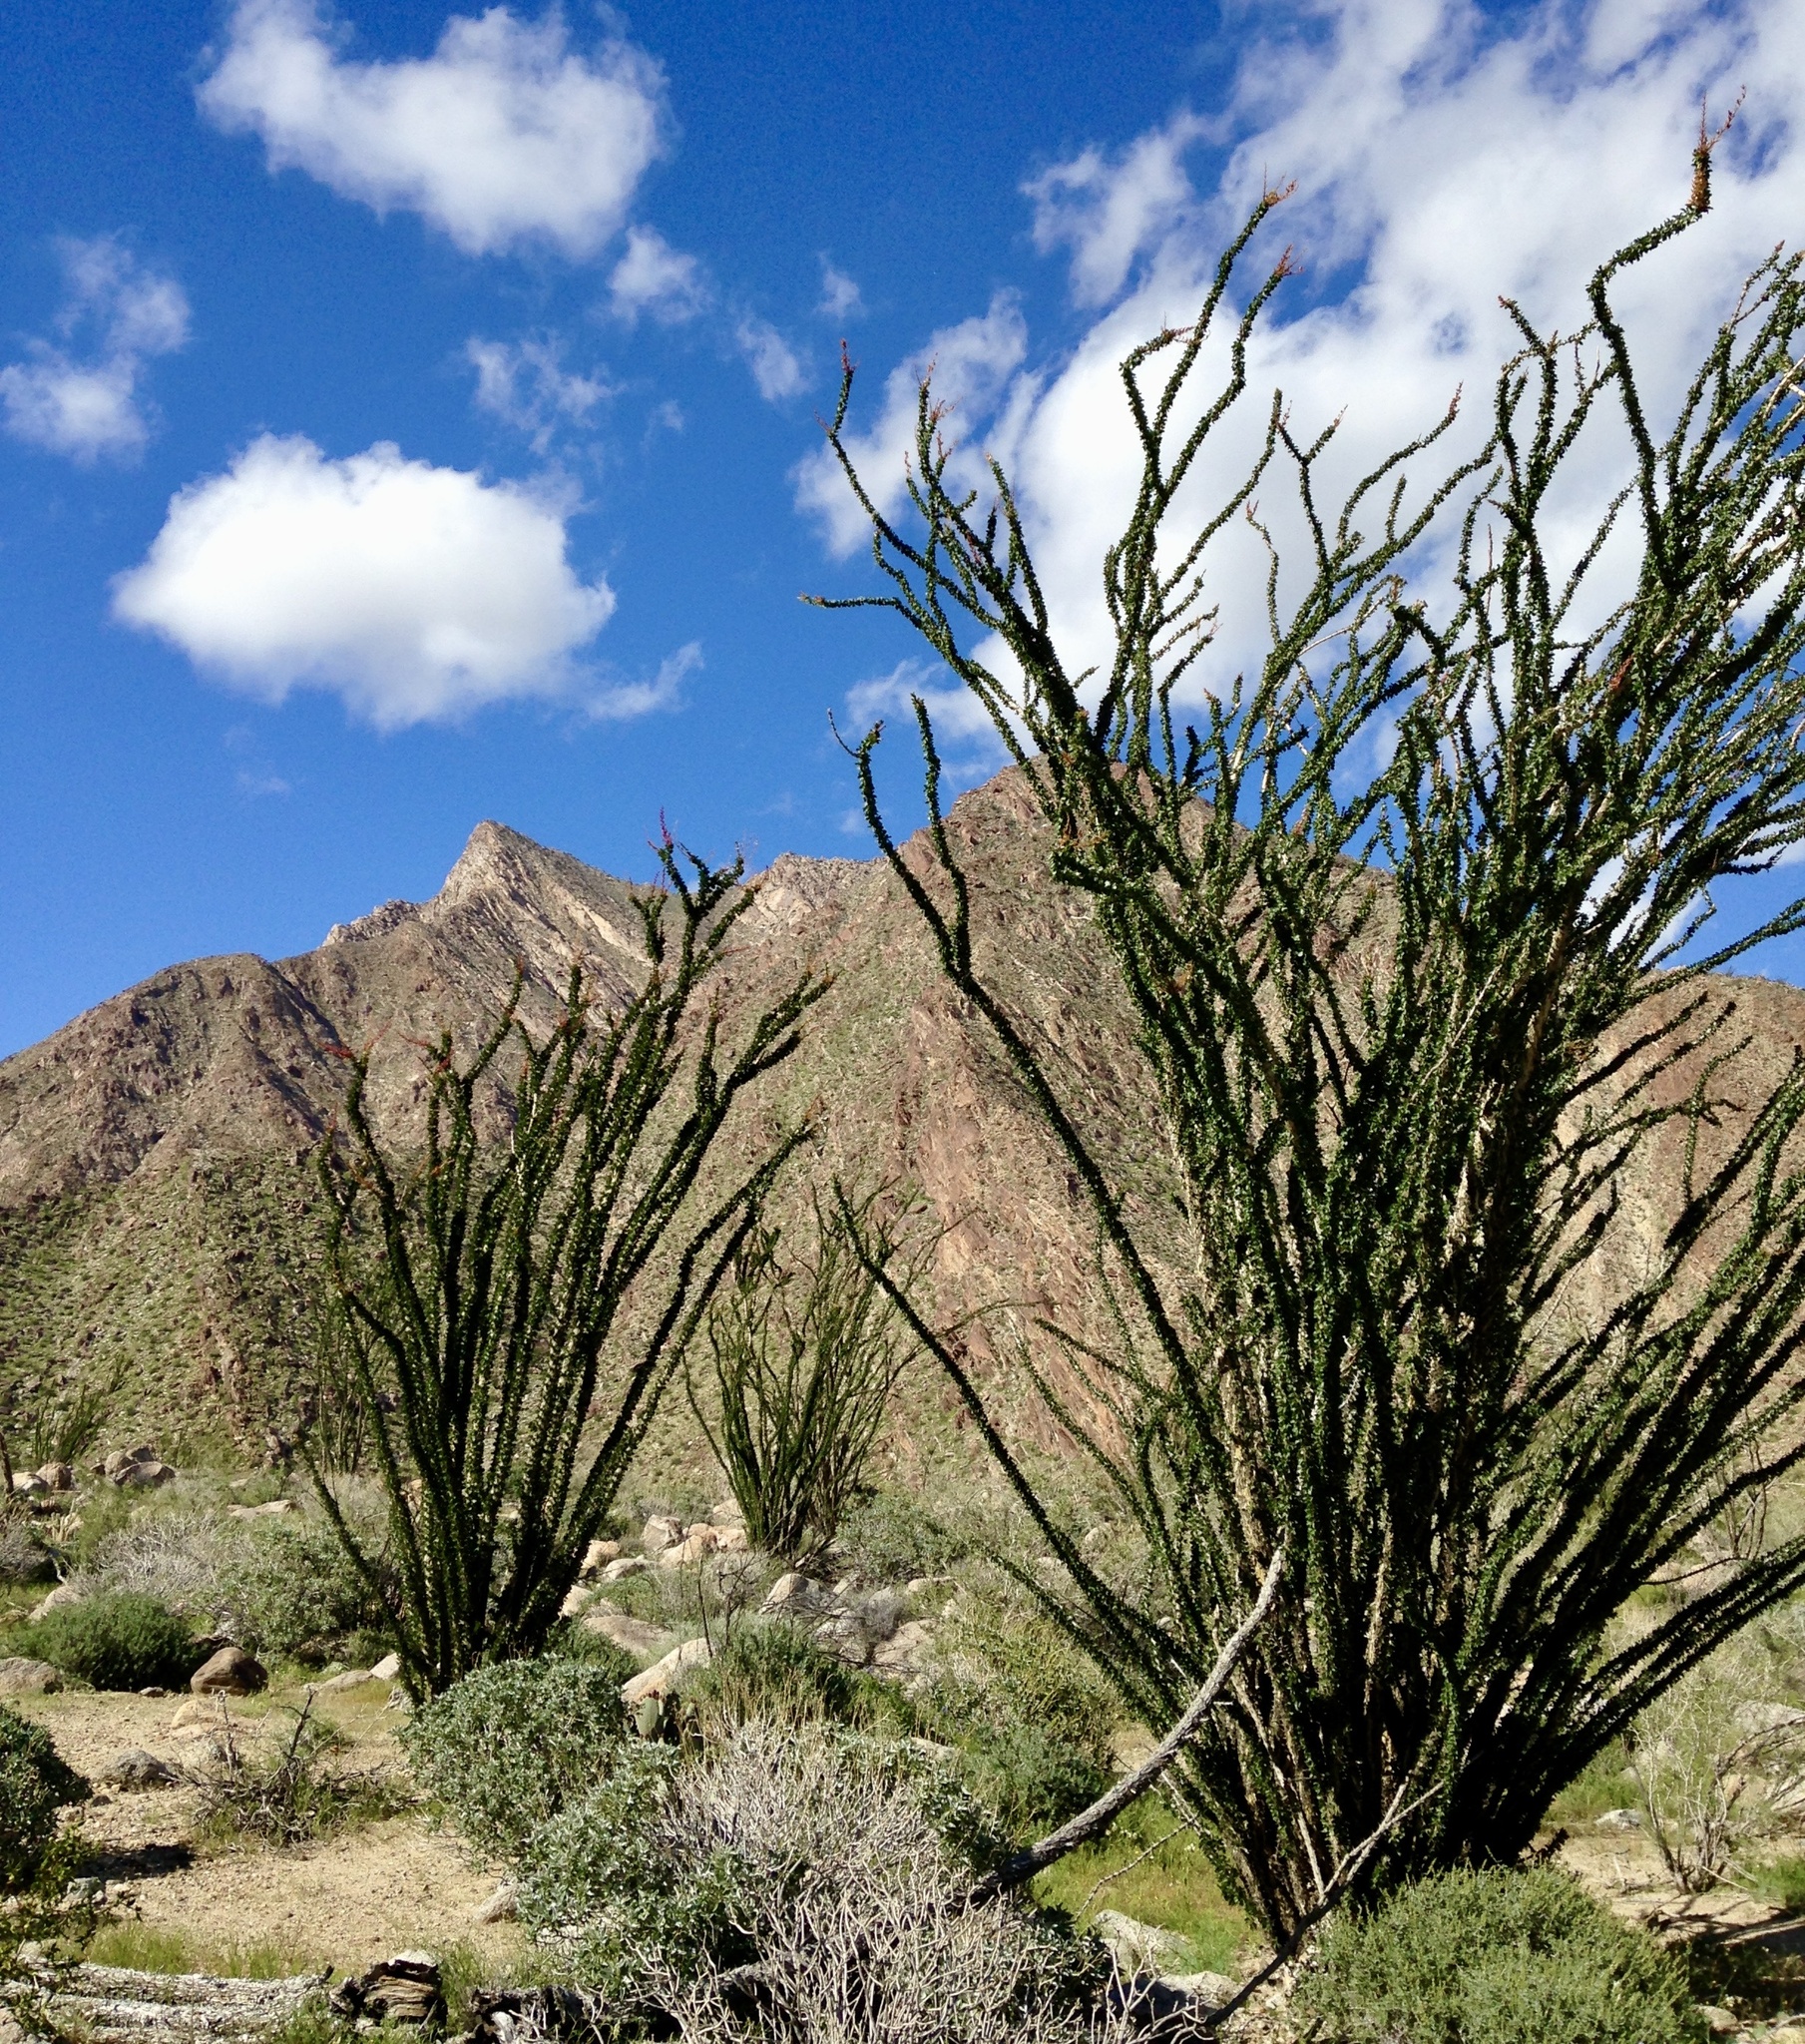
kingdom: Plantae
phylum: Tracheophyta
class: Magnoliopsida
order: Ericales
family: Fouquieriaceae
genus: Fouquieria
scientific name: Fouquieria splendens
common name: Vine-cactus
